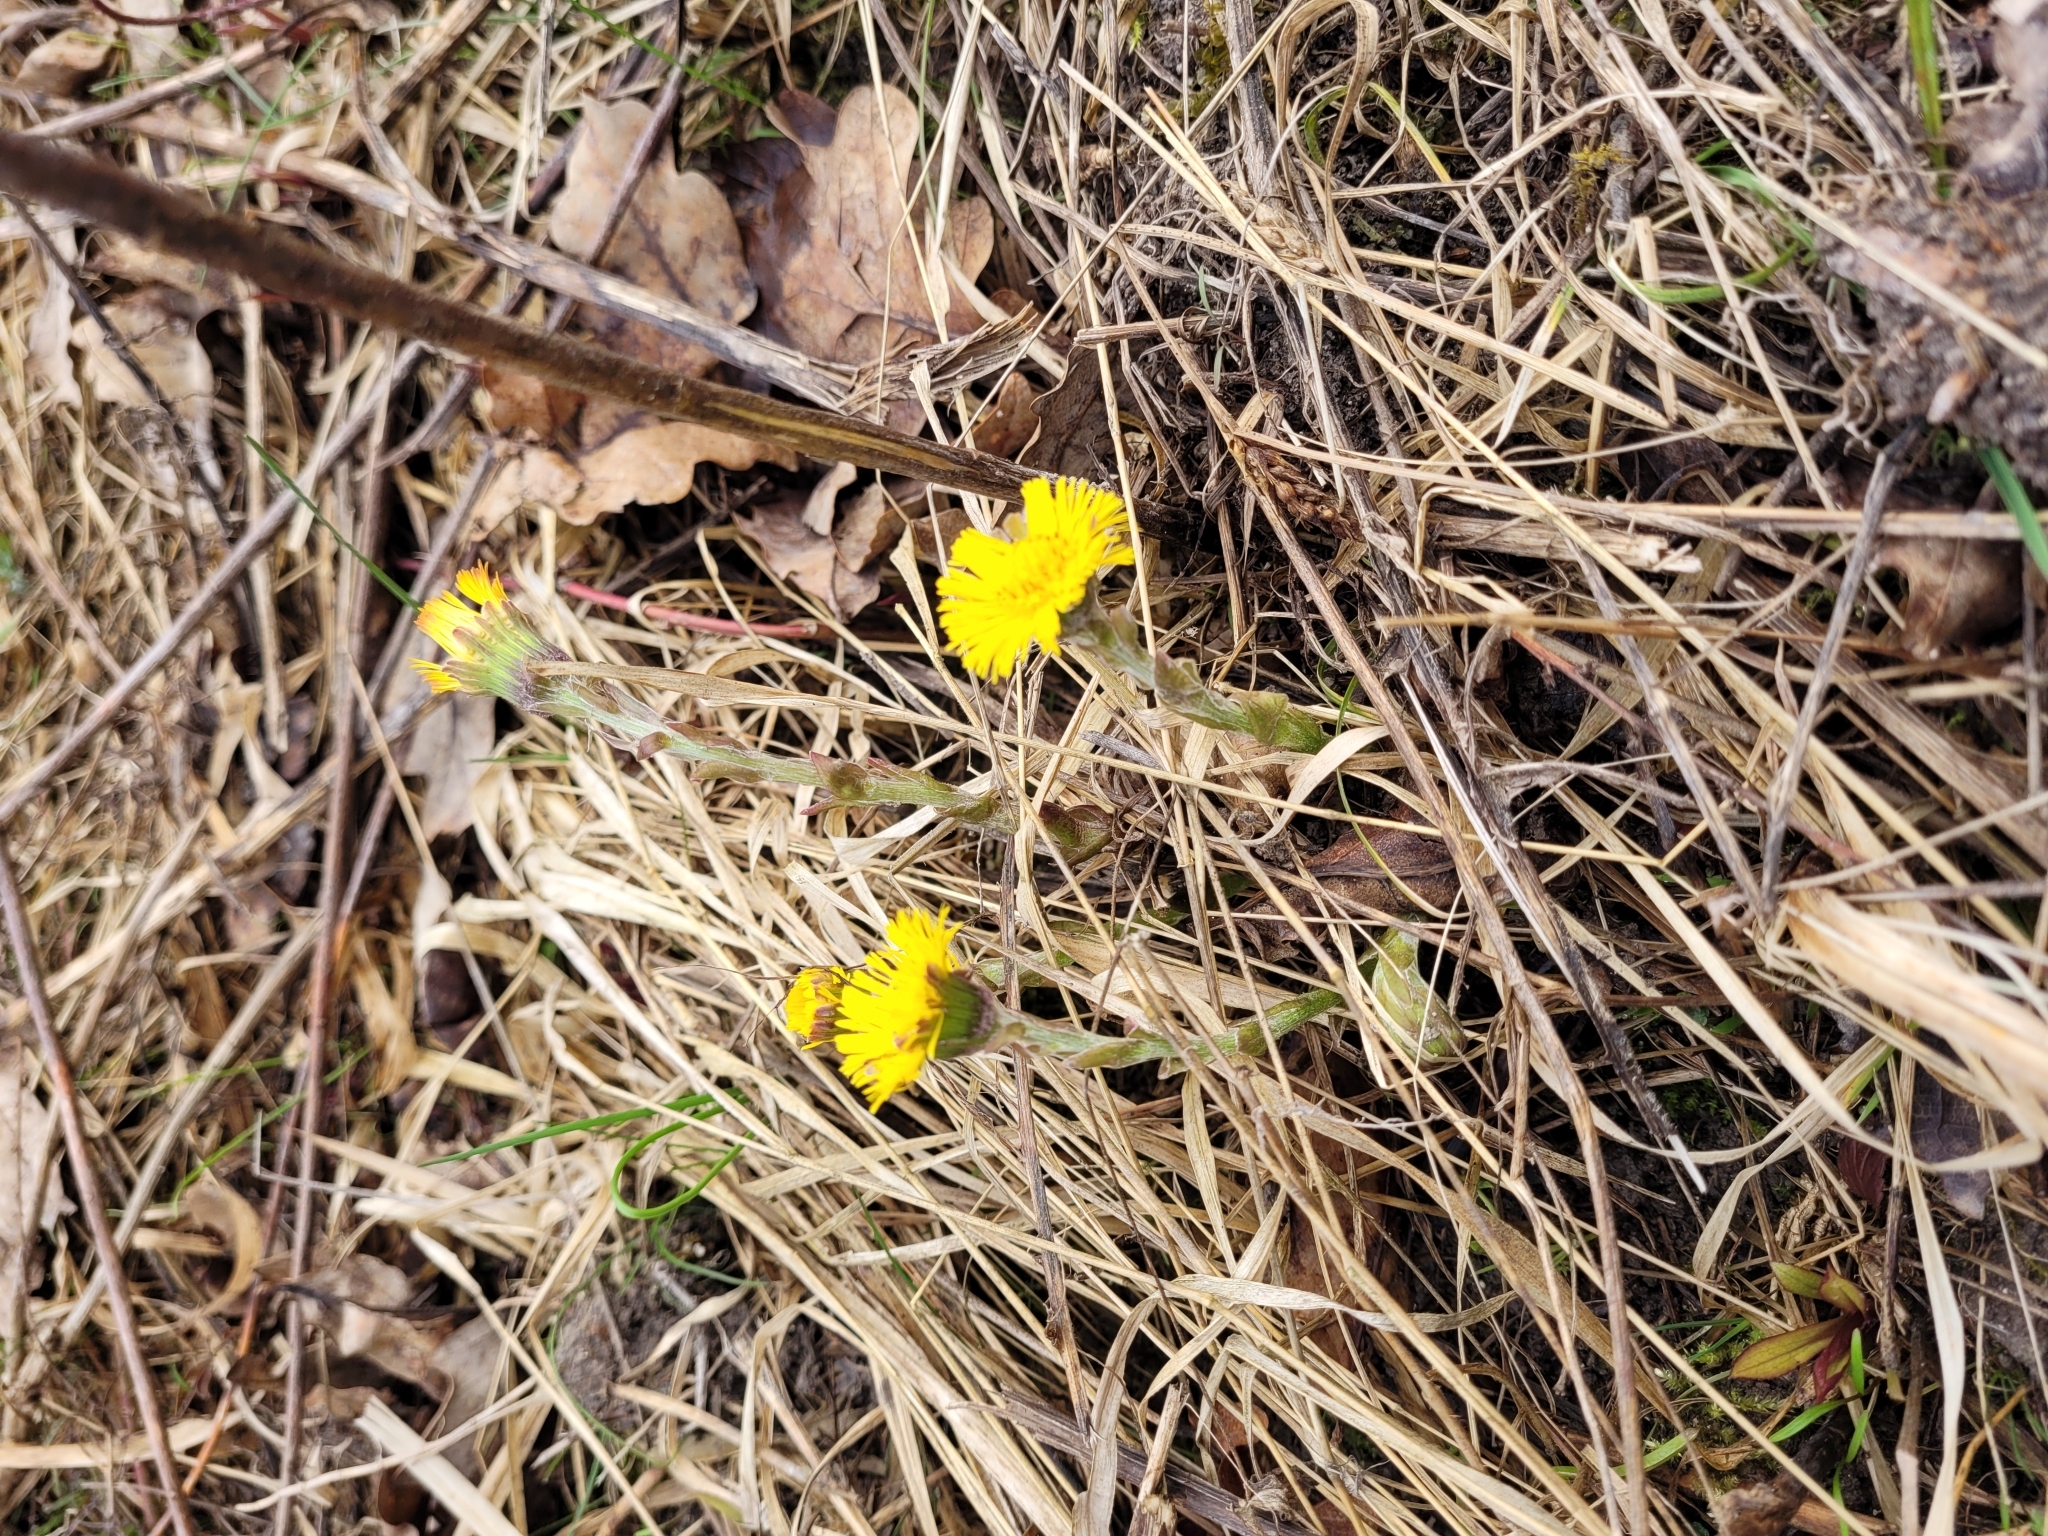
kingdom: Plantae
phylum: Tracheophyta
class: Magnoliopsida
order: Asterales
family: Asteraceae
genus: Tussilago
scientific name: Tussilago farfara
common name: Coltsfoot
